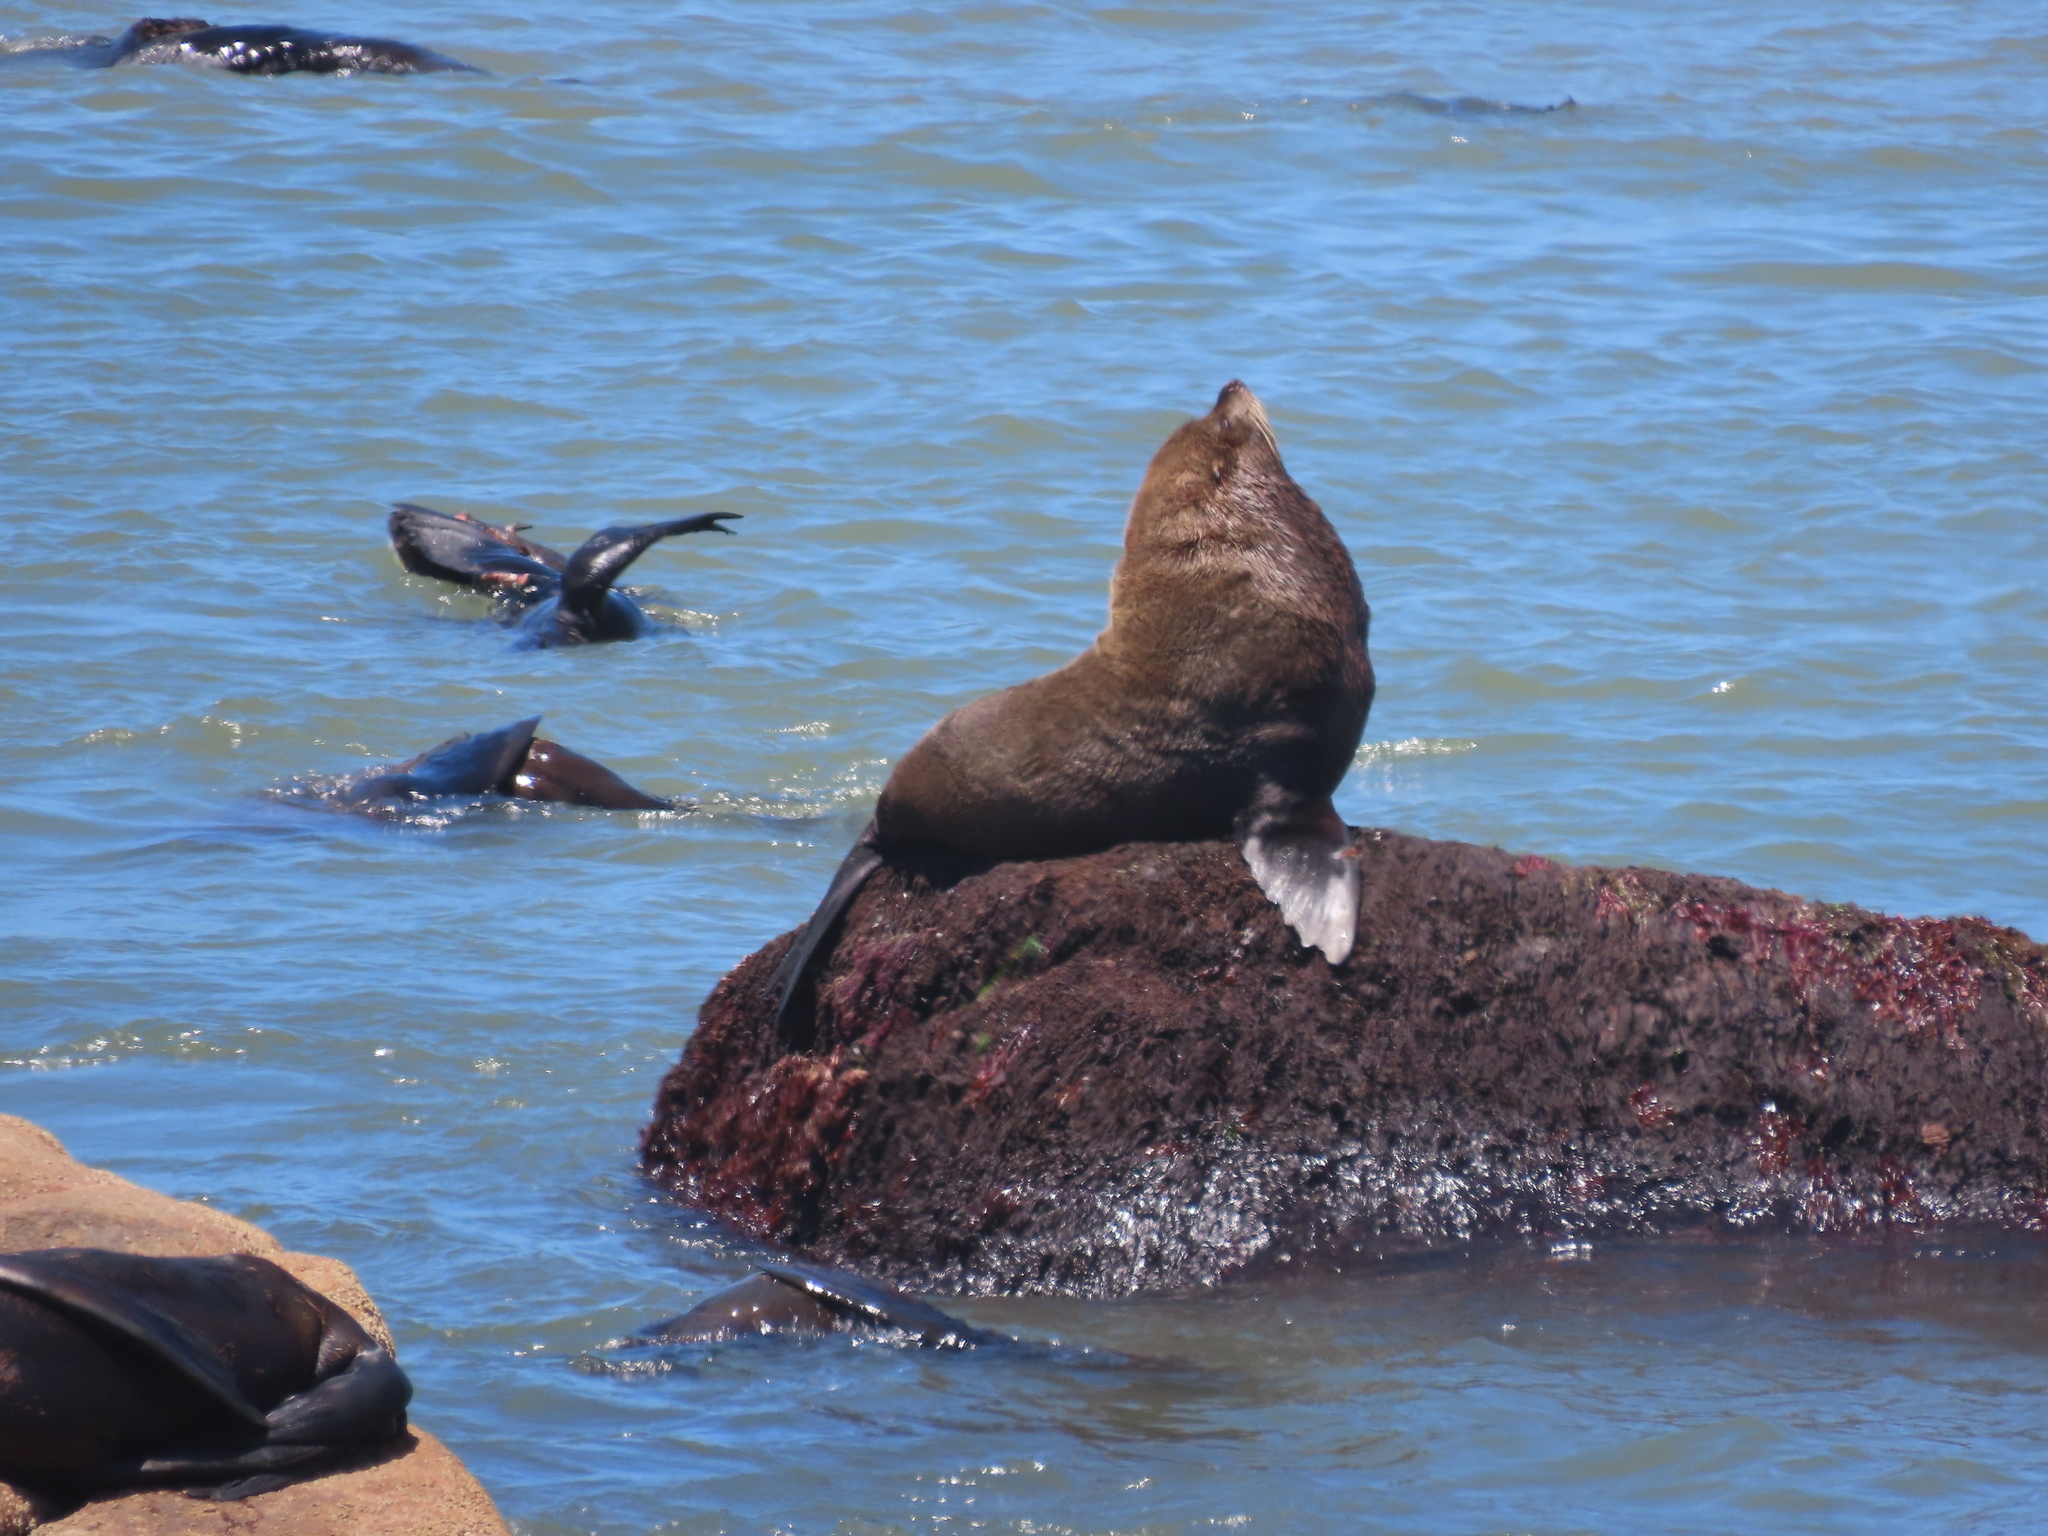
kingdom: Animalia
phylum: Chordata
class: Mammalia
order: Carnivora
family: Otariidae
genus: Arctocephalus
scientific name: Arctocephalus australis
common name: South american fur seal
